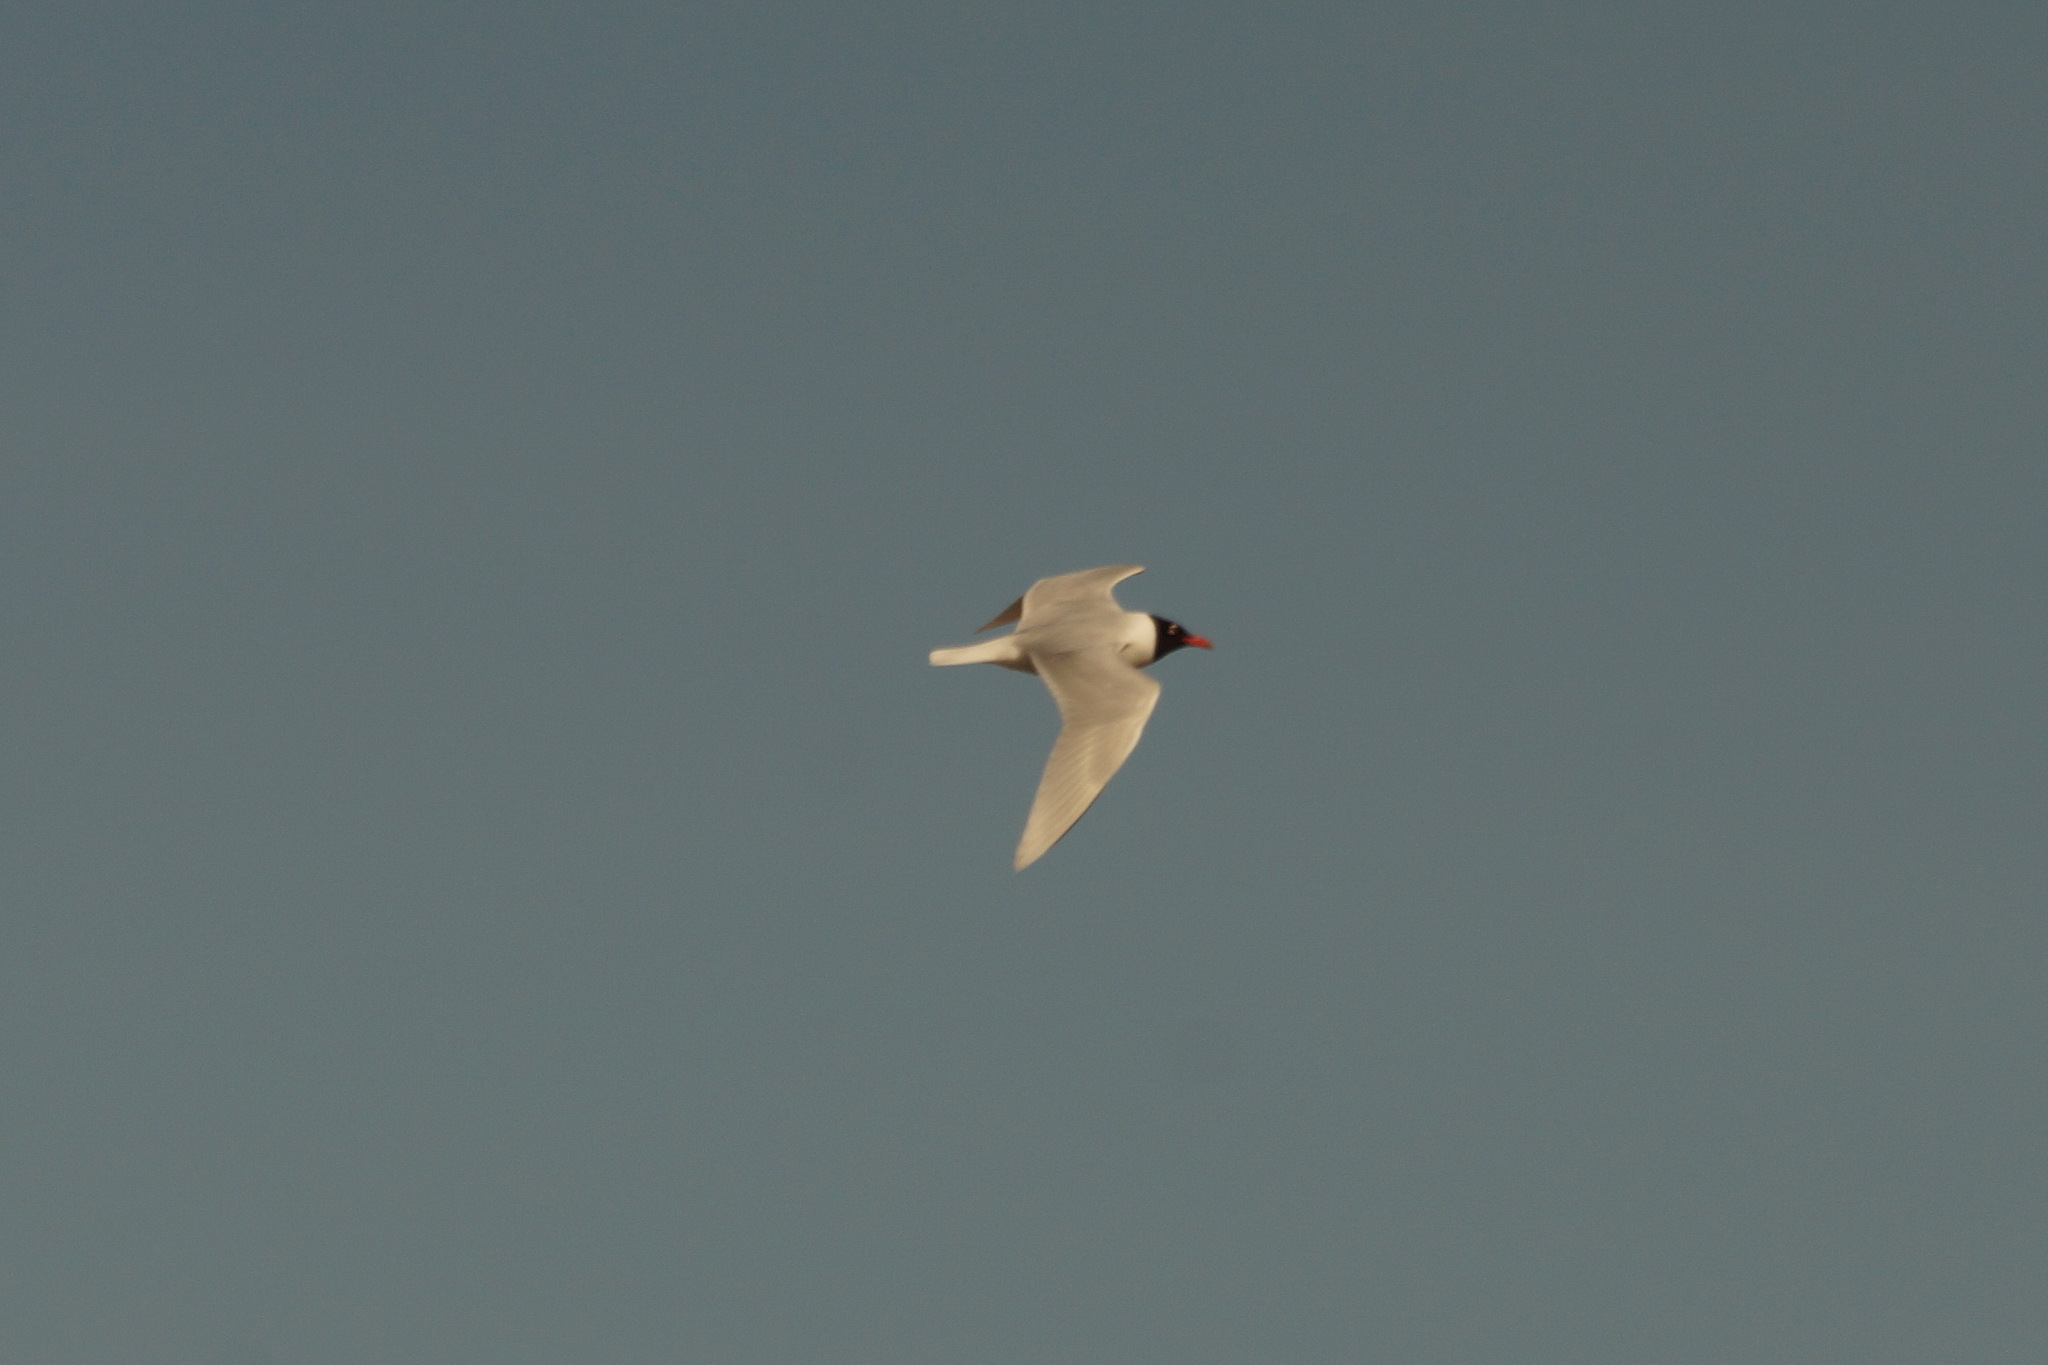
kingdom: Animalia
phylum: Chordata
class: Aves
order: Charadriiformes
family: Laridae
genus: Ichthyaetus
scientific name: Ichthyaetus melanocephalus
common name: Mediterranean gull
